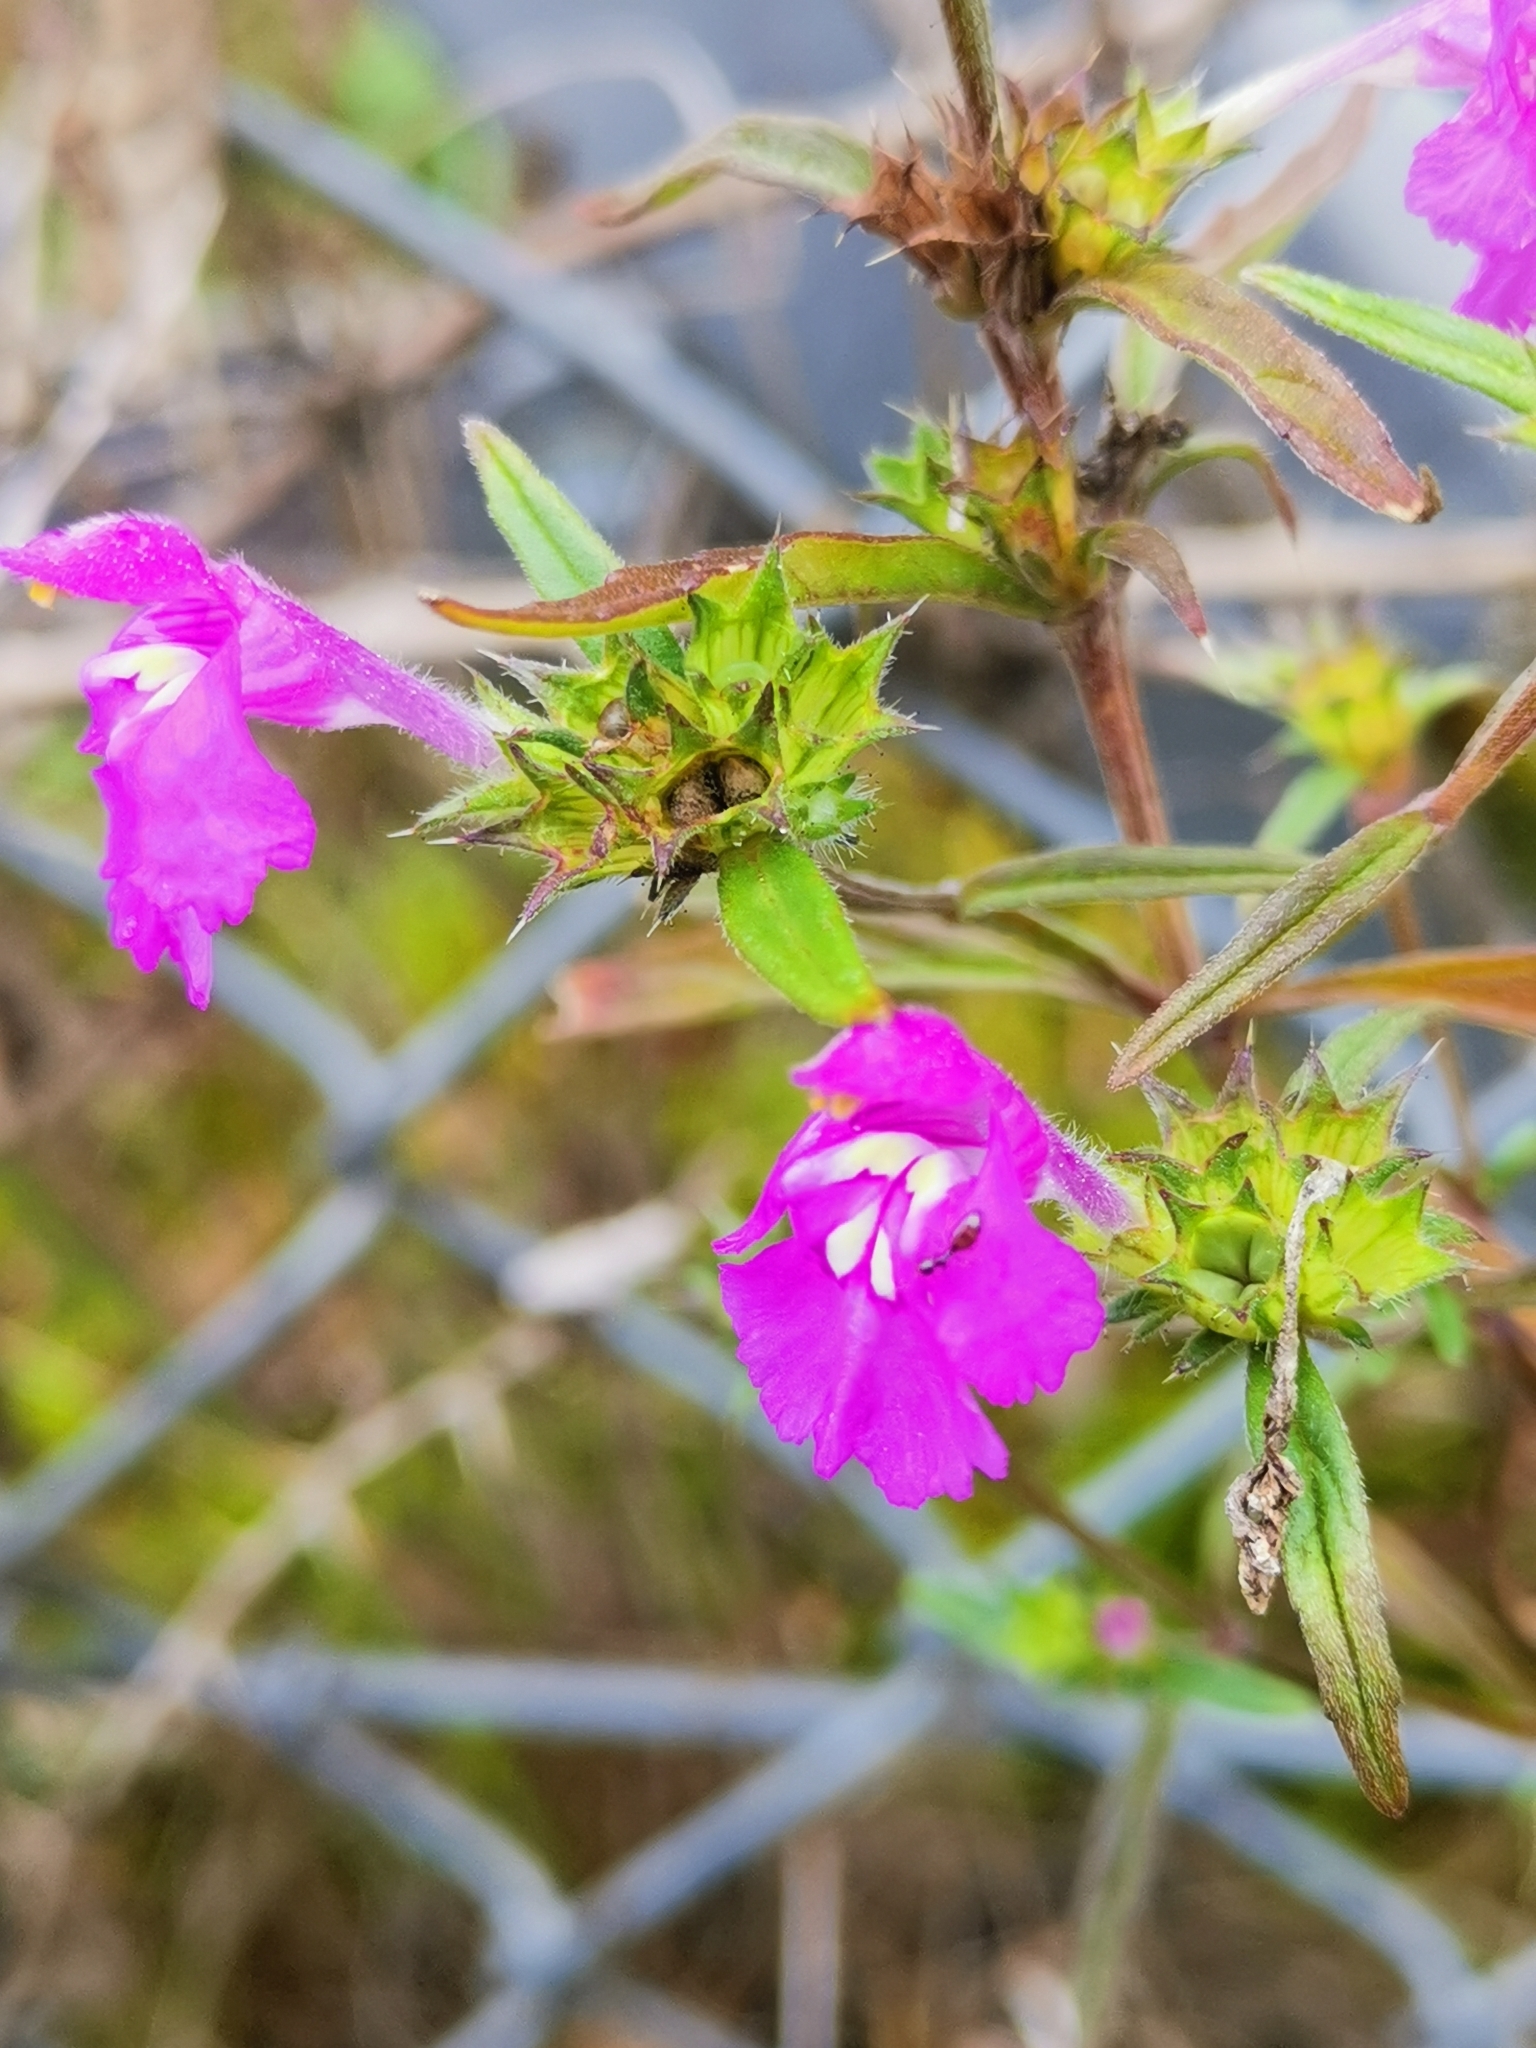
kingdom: Plantae
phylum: Tracheophyta
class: Magnoliopsida
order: Lamiales
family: Lamiaceae
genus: Galeopsis
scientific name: Galeopsis angustifolia
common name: Red hemp-nettle
